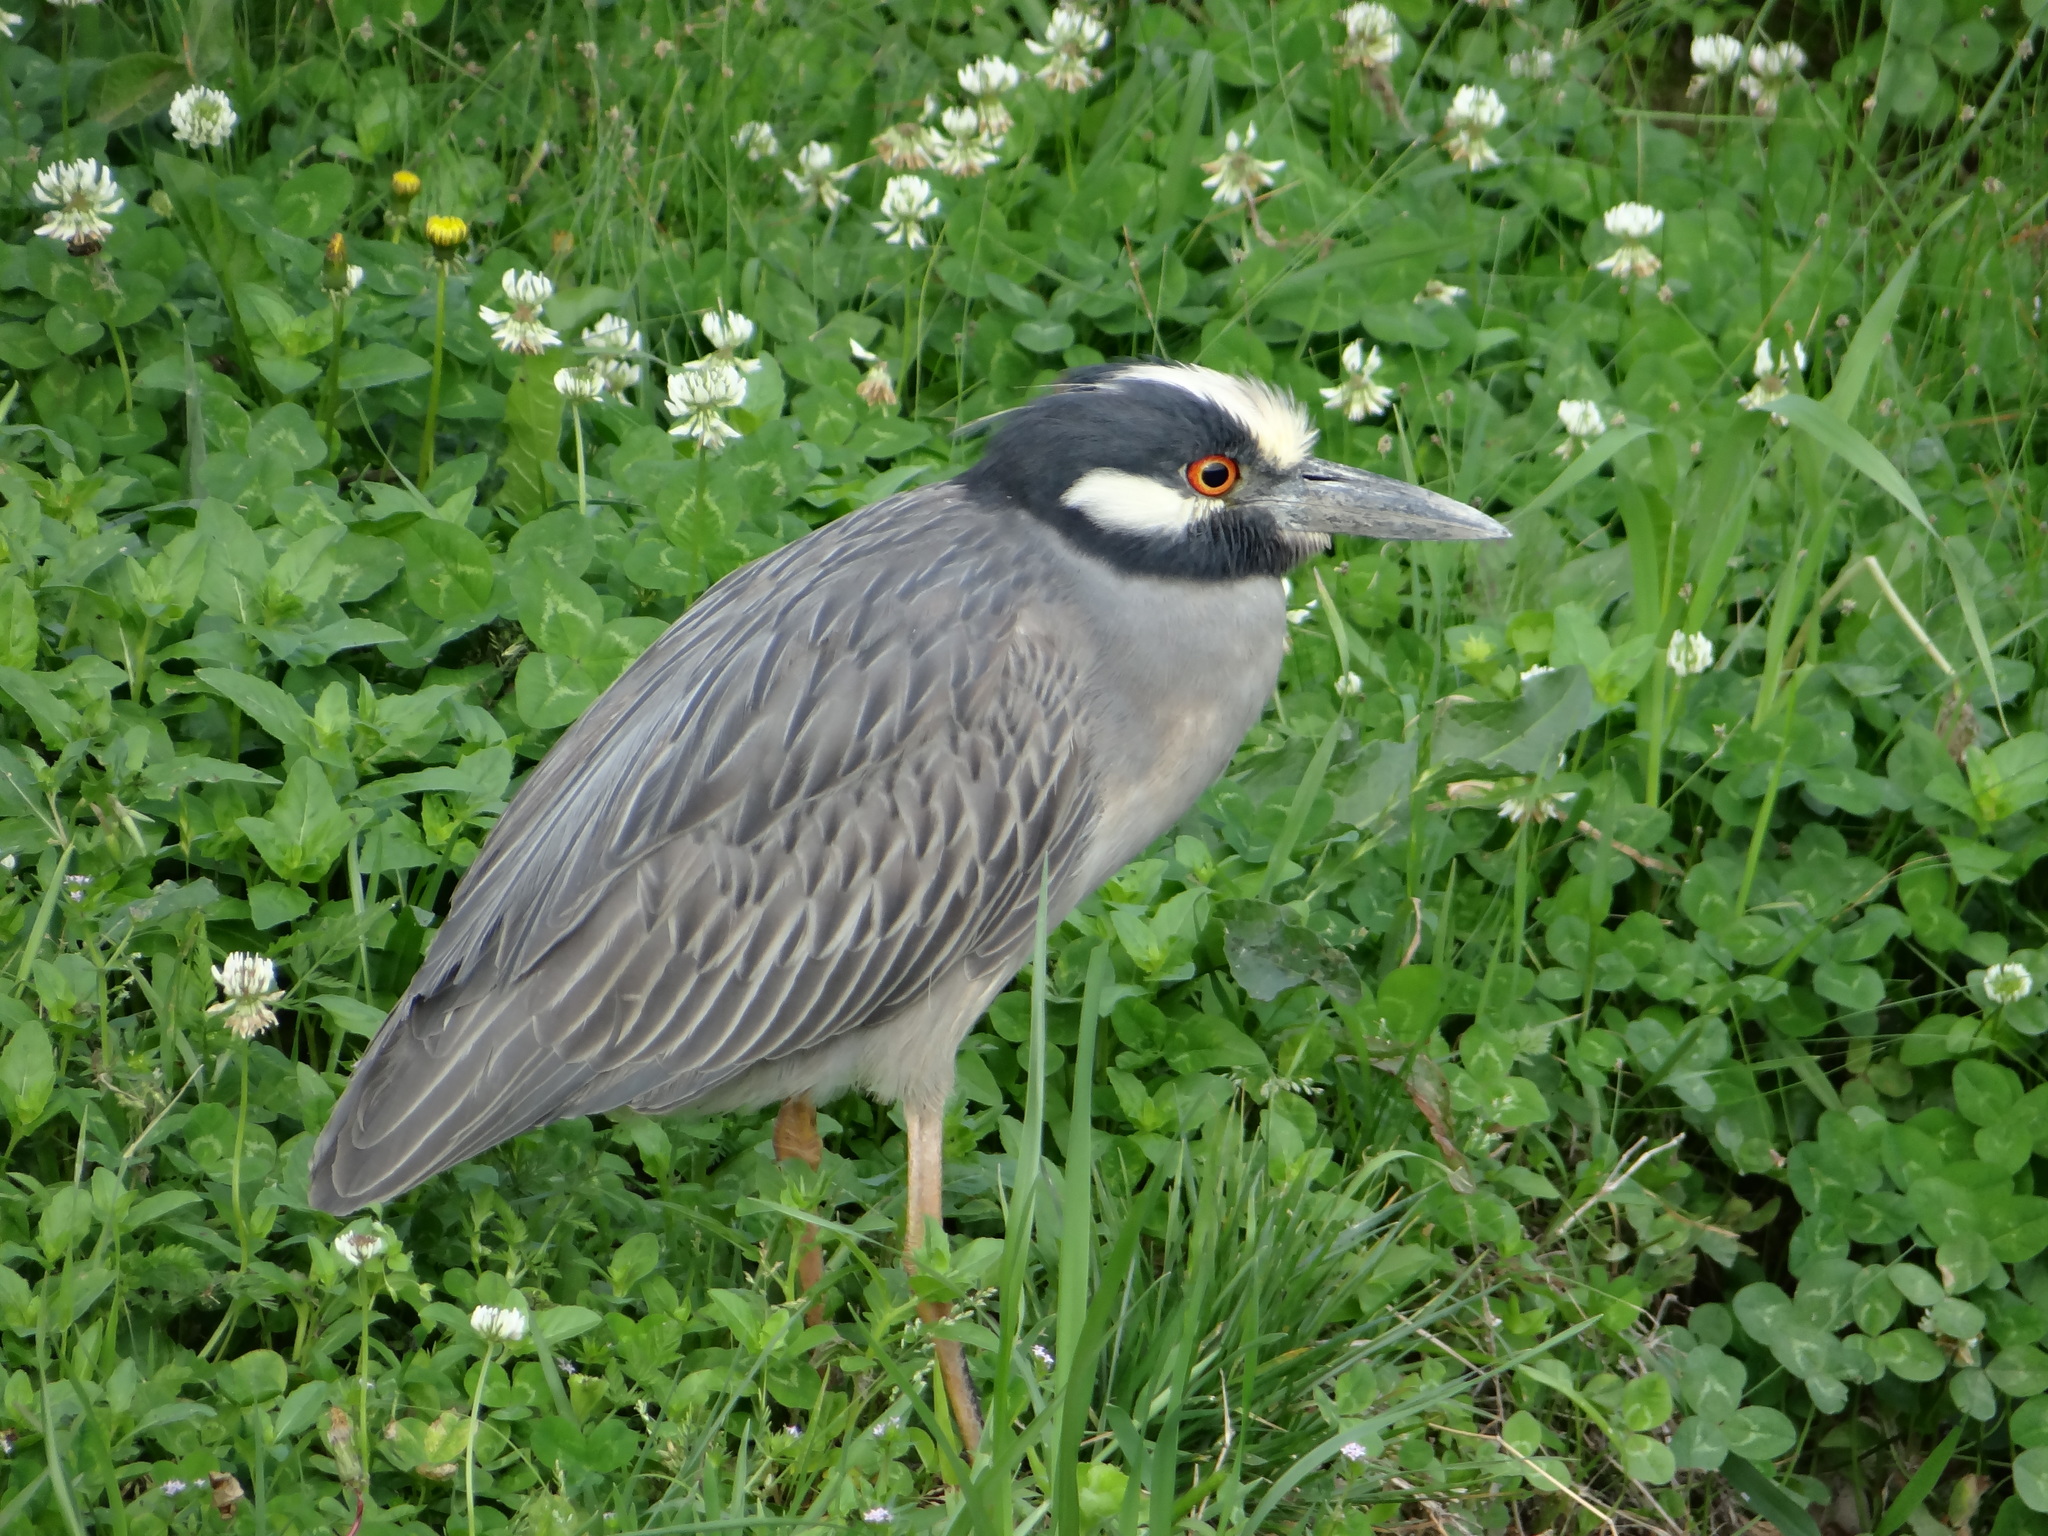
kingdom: Animalia
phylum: Chordata
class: Aves
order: Pelecaniformes
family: Ardeidae
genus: Nyctanassa
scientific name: Nyctanassa violacea
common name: Yellow-crowned night heron
